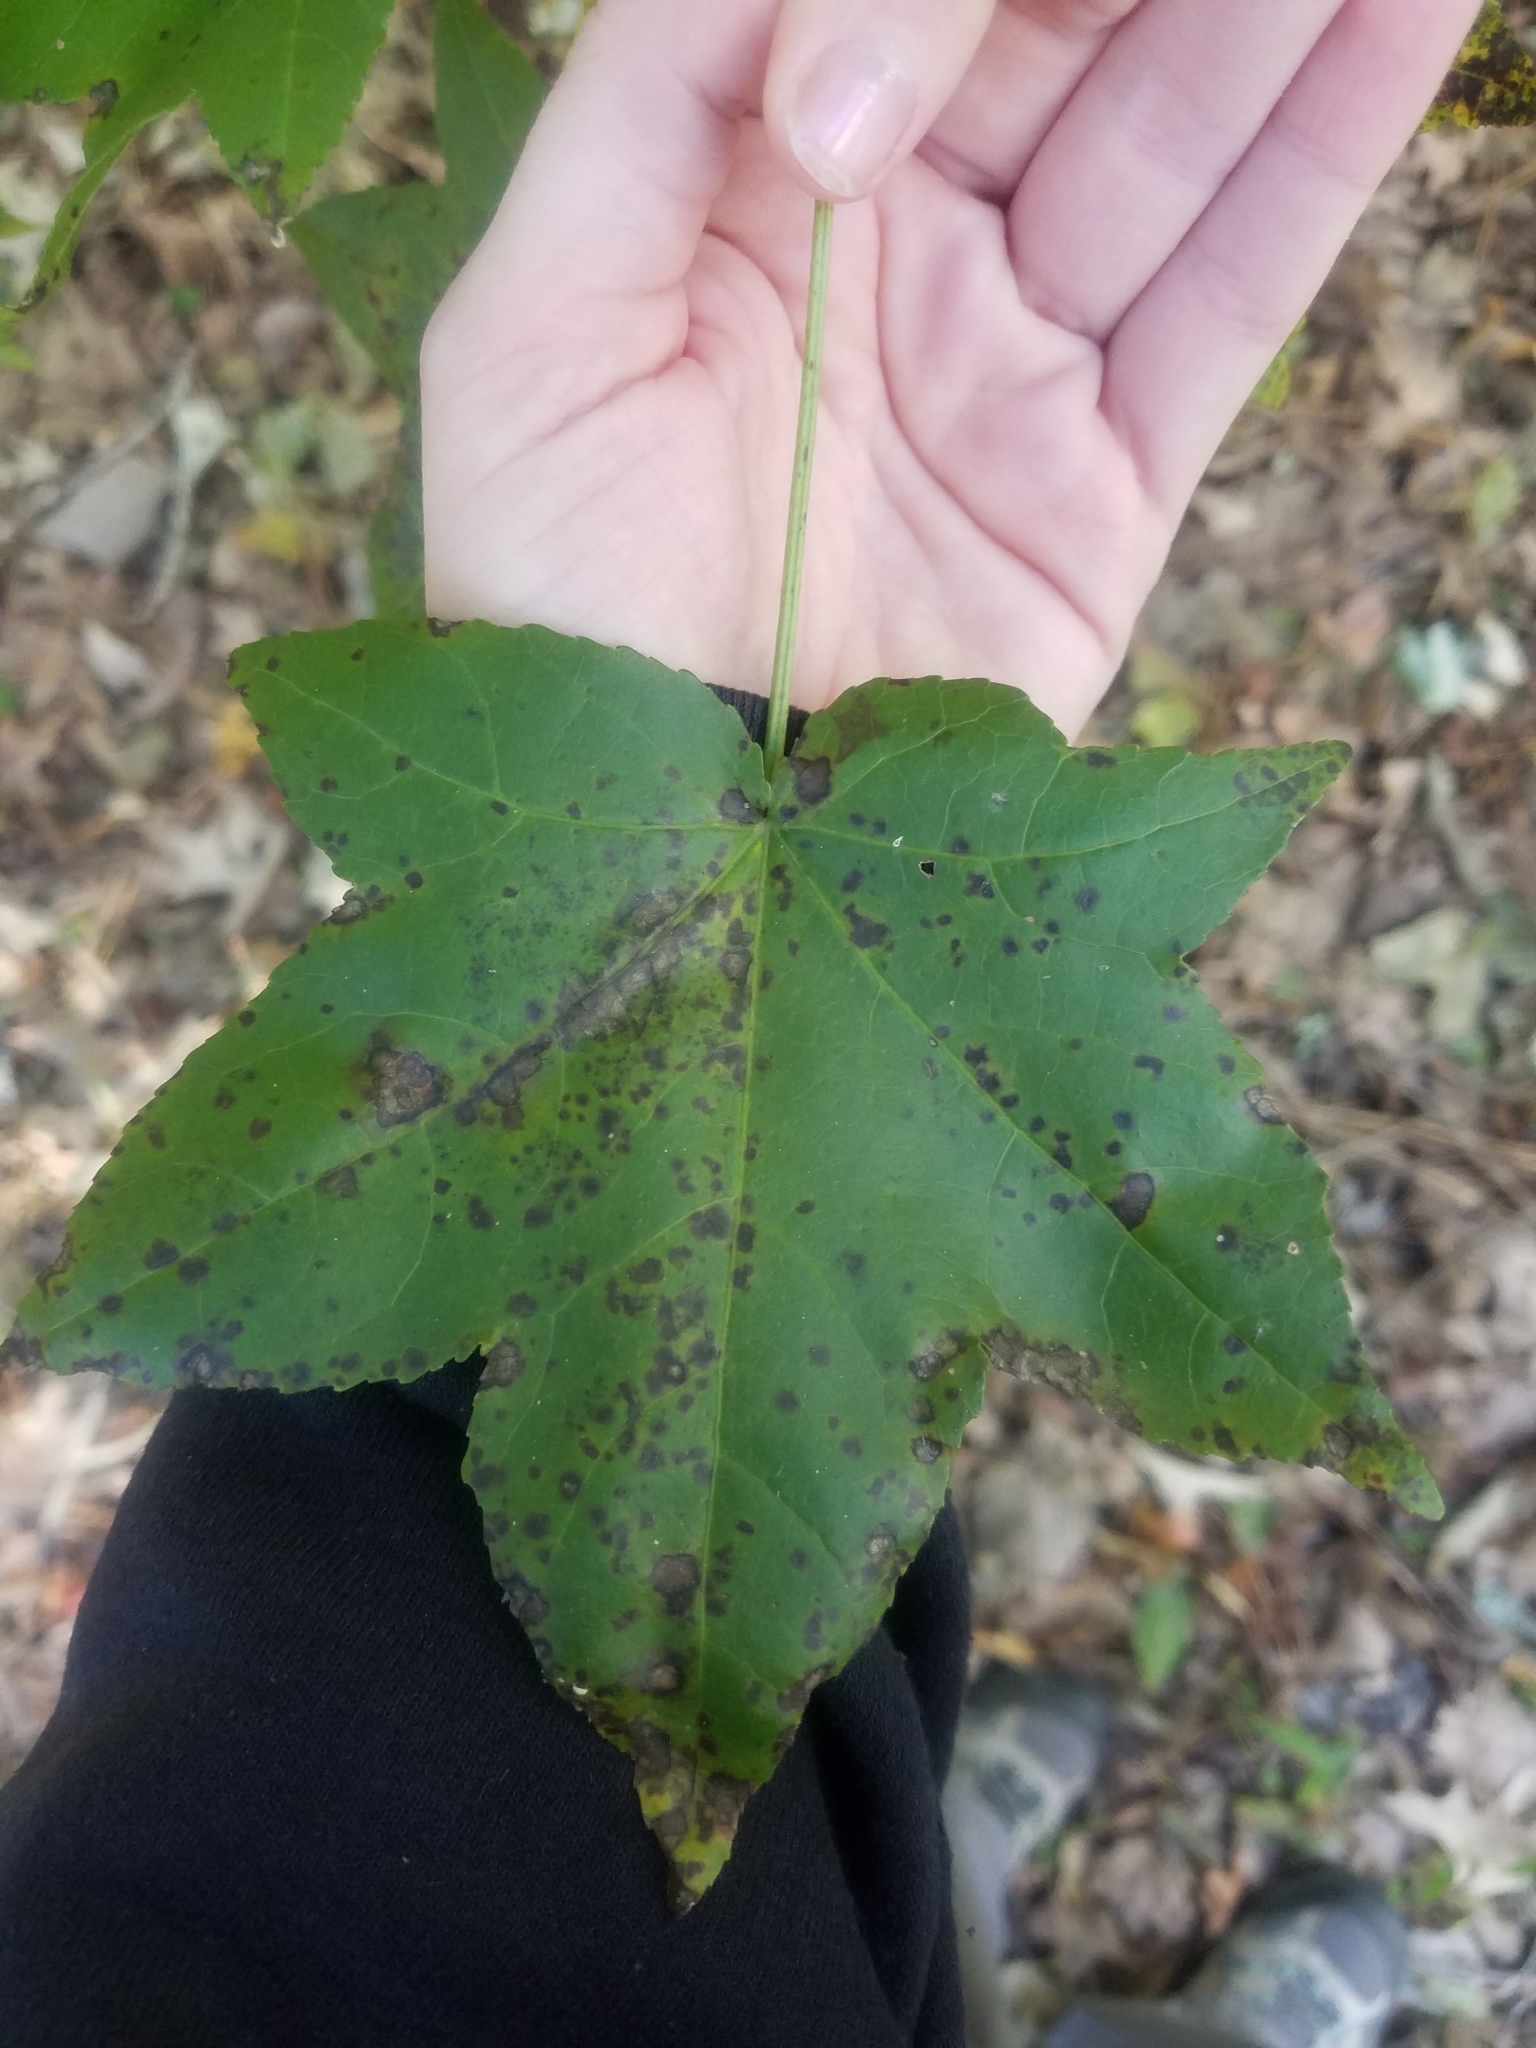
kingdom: Plantae
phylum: Tracheophyta
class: Magnoliopsida
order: Saxifragales
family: Altingiaceae
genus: Liquidambar
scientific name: Liquidambar styraciflua
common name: Sweet gum
